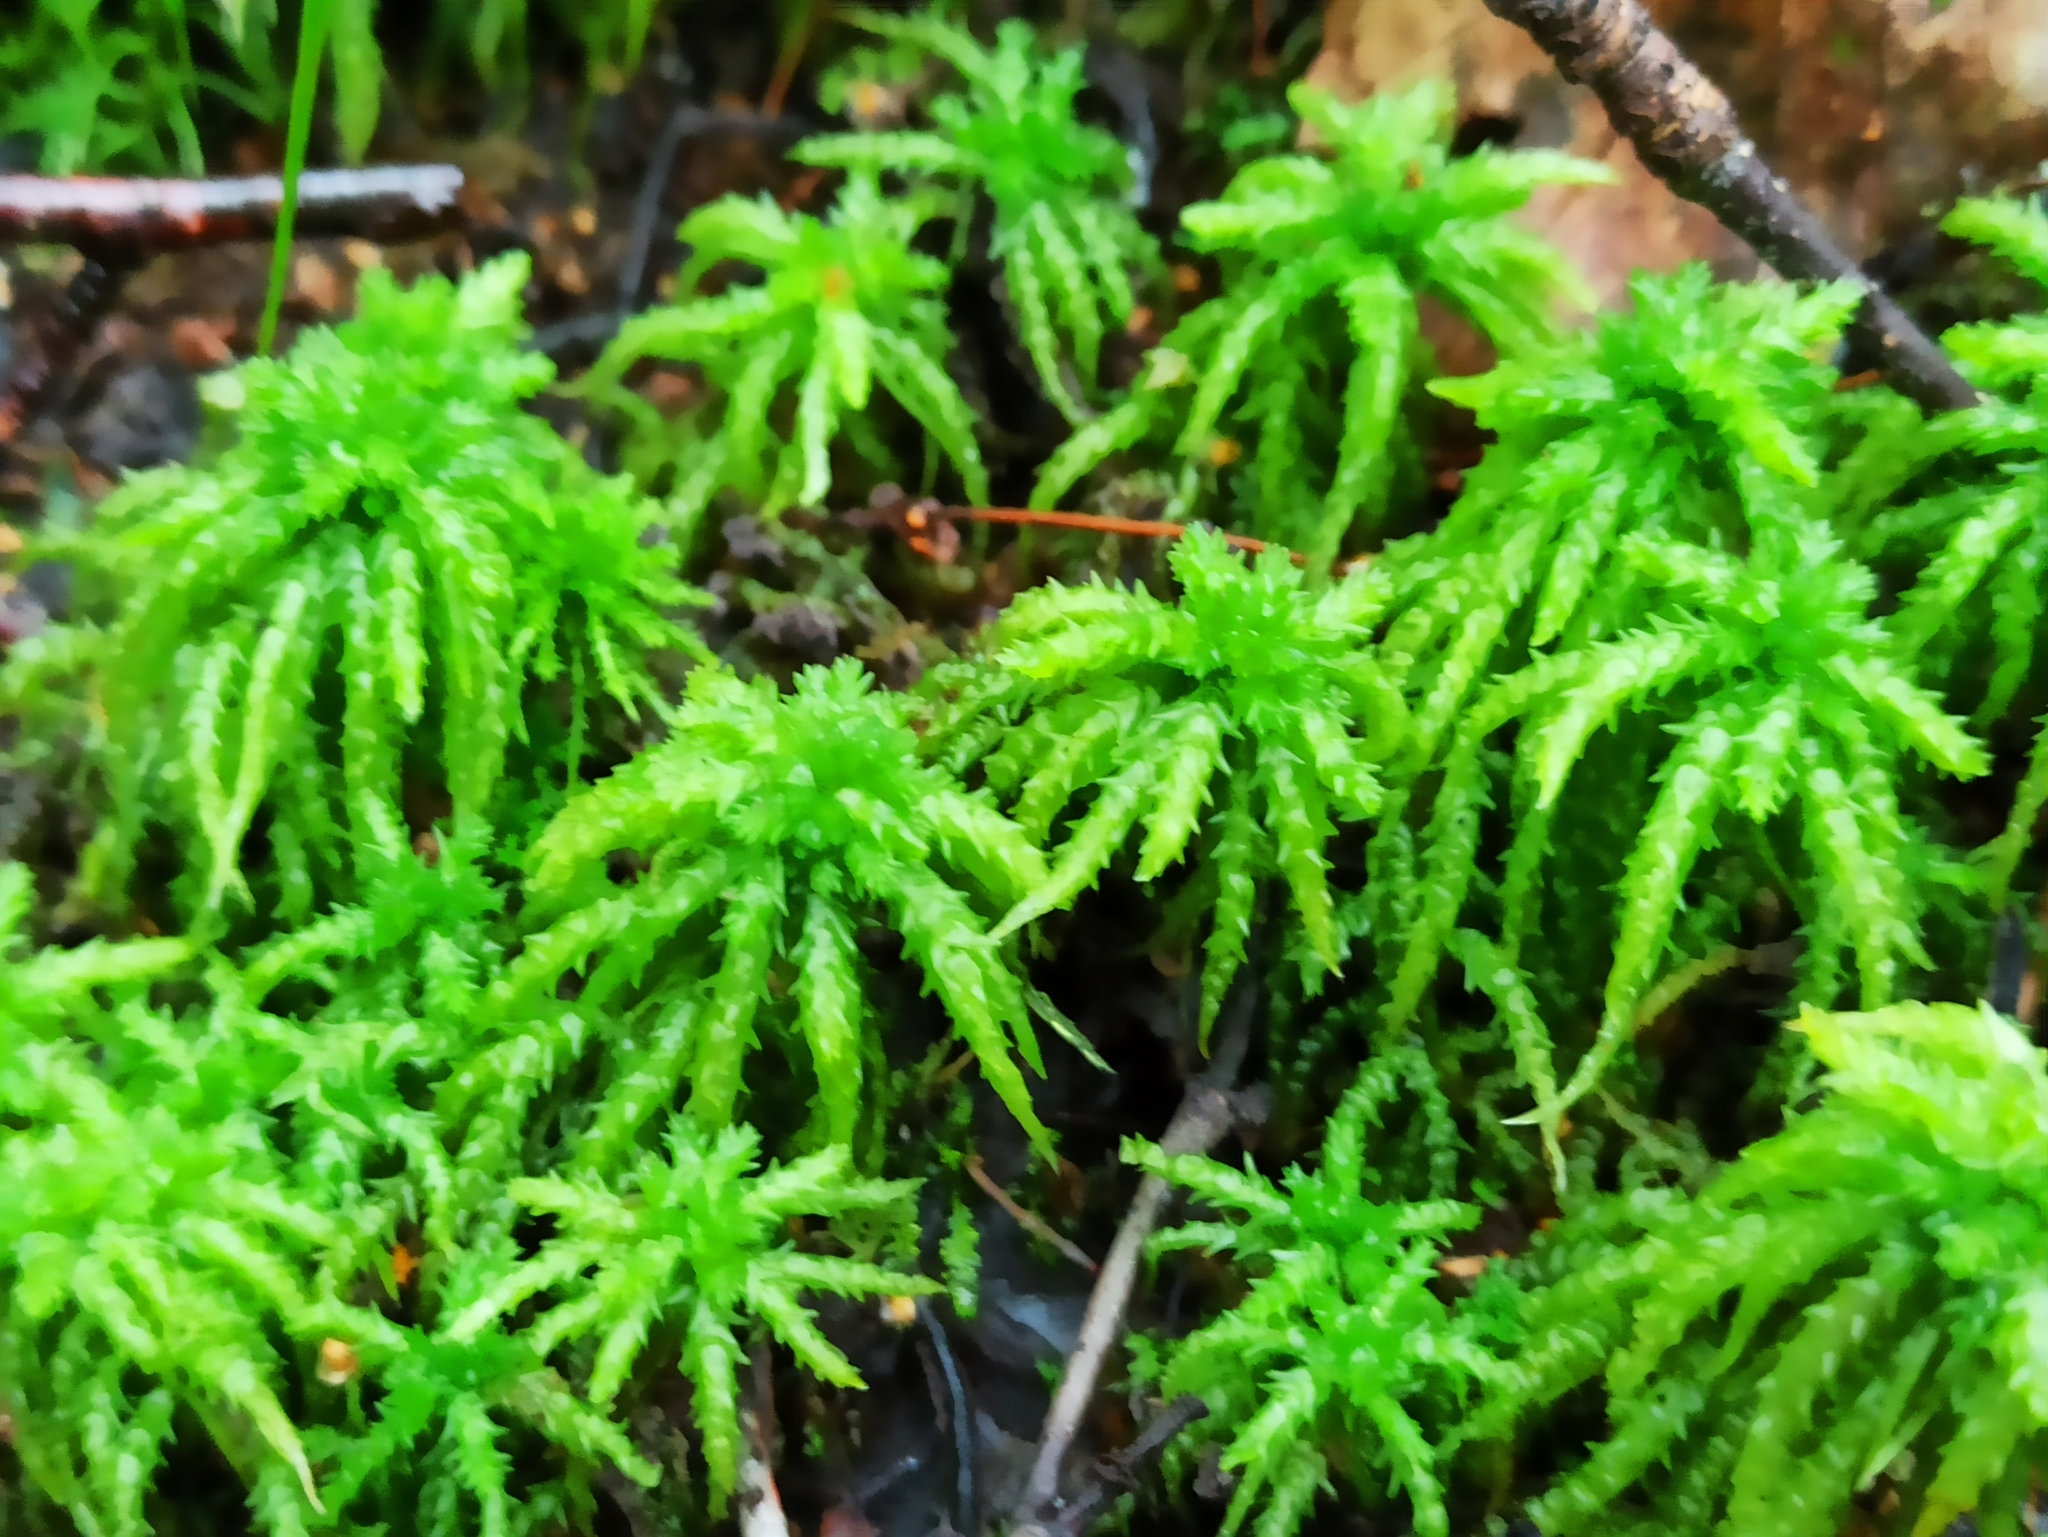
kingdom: Plantae
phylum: Bryophyta
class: Sphagnopsida
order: Sphagnales
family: Sphagnaceae
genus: Sphagnum
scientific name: Sphagnum squarrosum
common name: Shaggy peat moss
